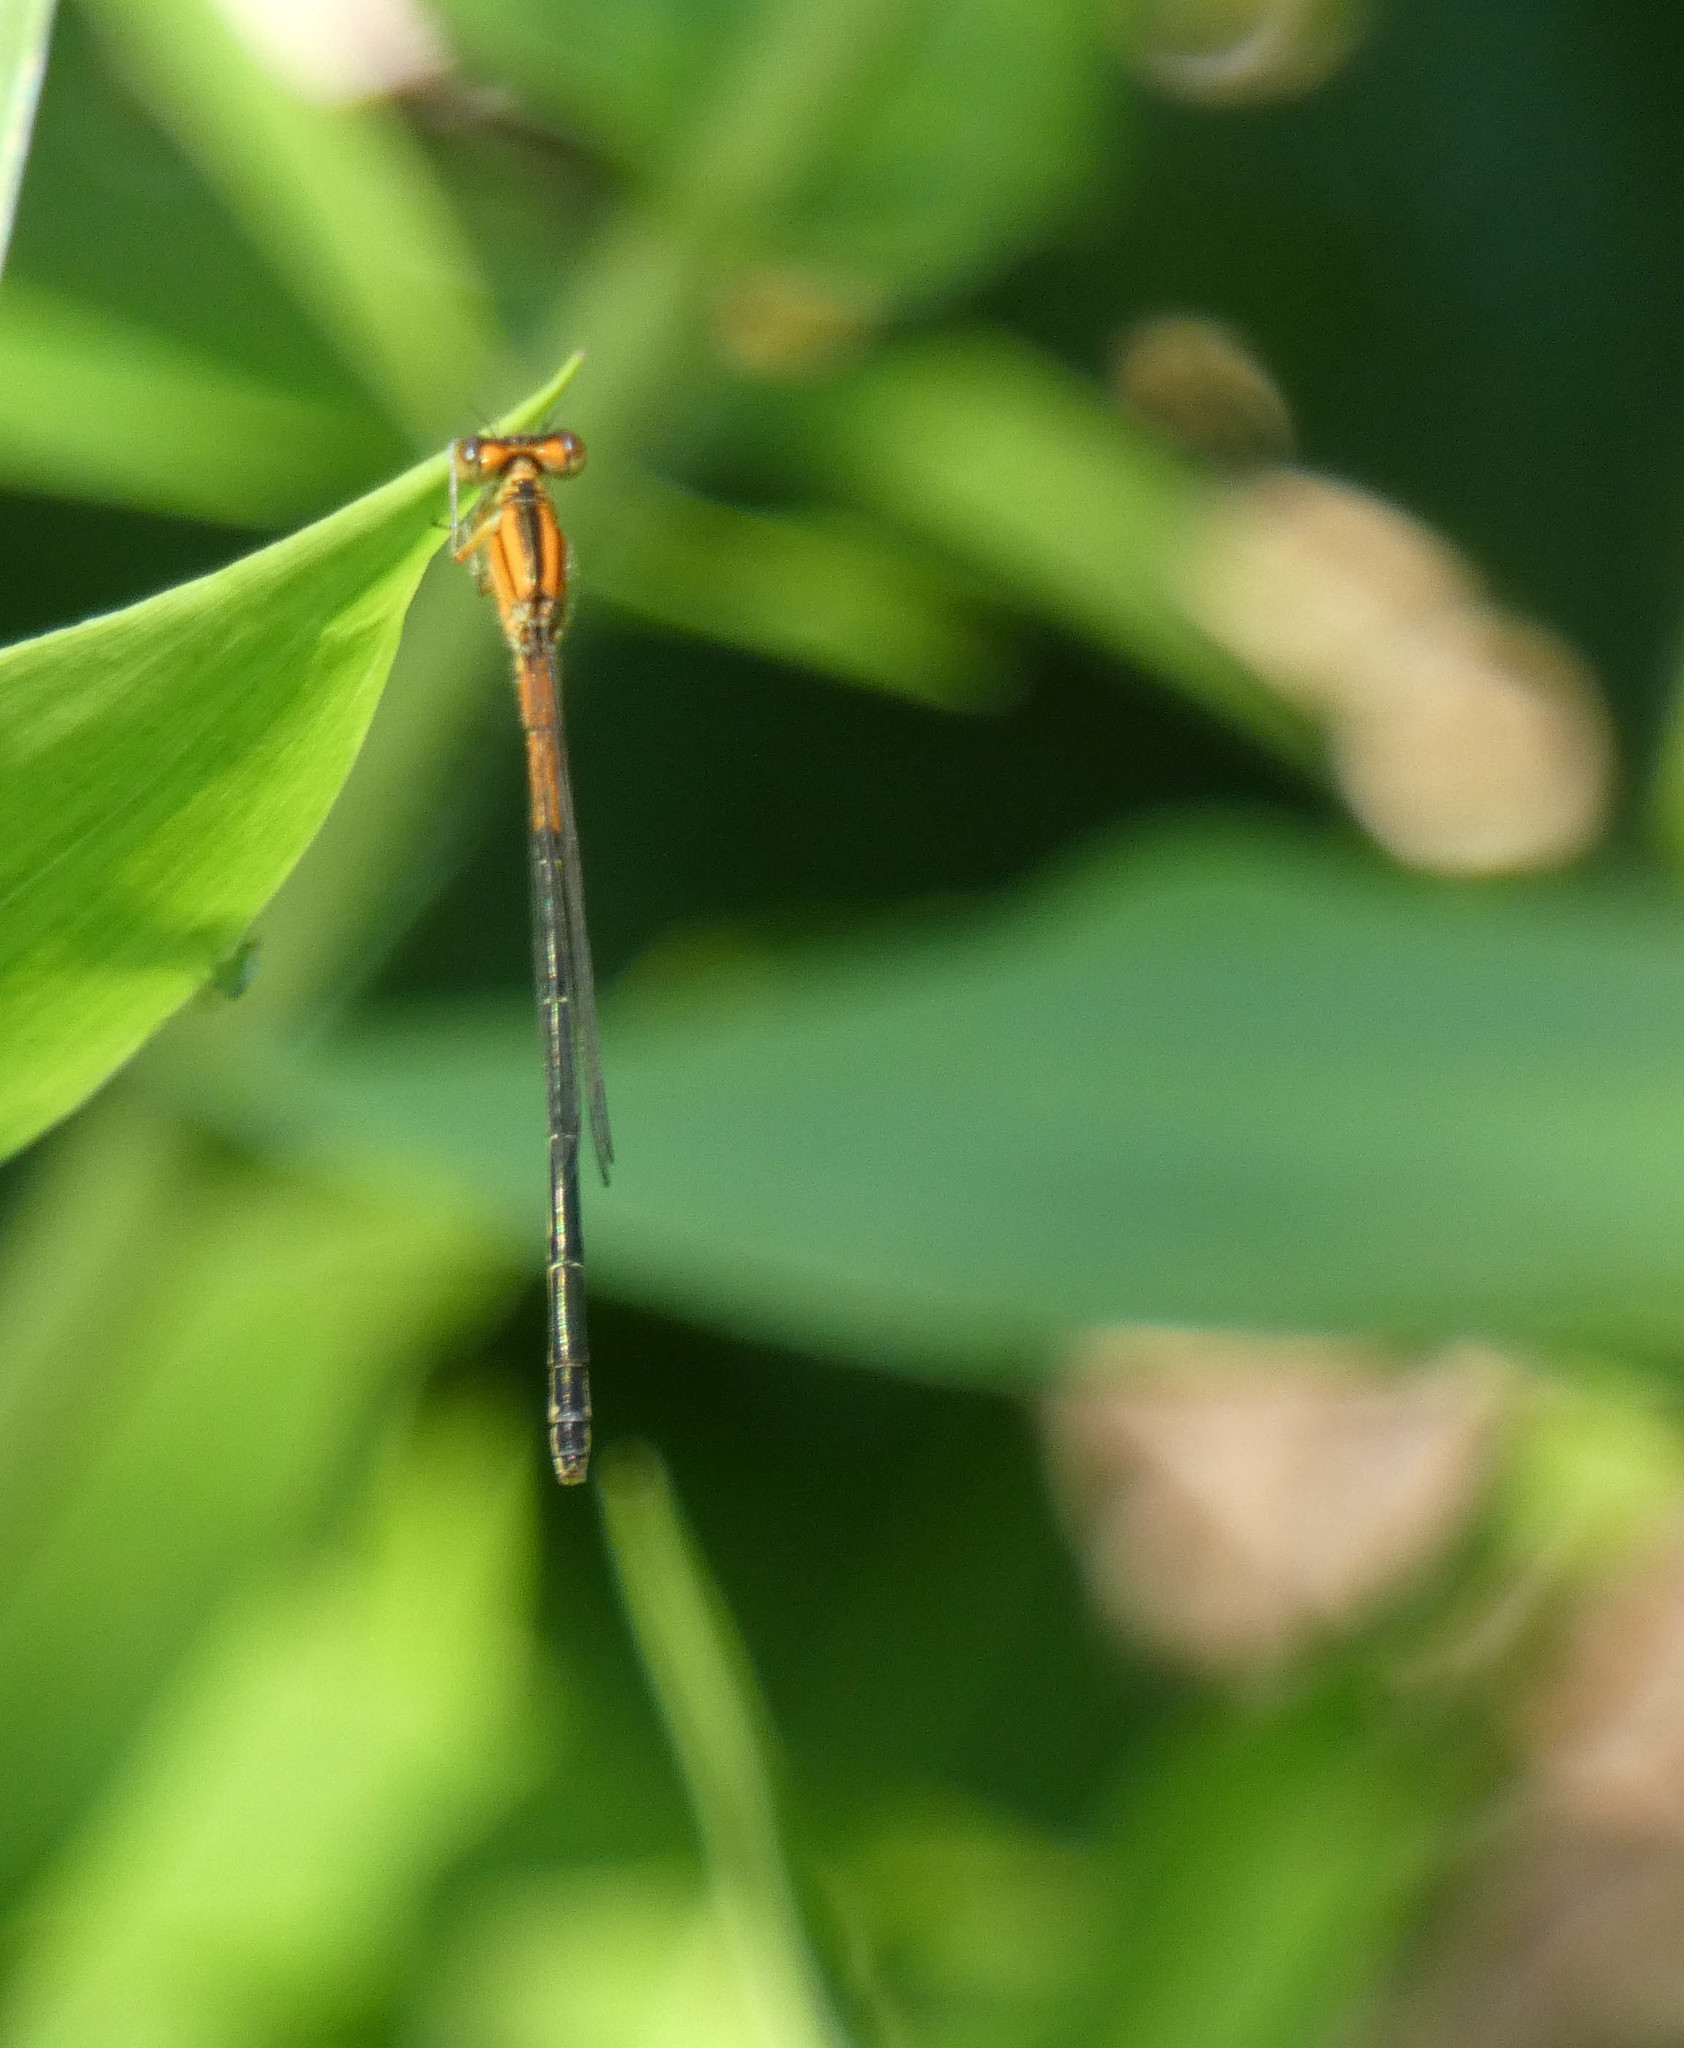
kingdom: Animalia
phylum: Arthropoda
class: Insecta
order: Odonata
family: Coenagrionidae
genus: Ischnura
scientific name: Ischnura verticalis
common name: Eastern forktail
